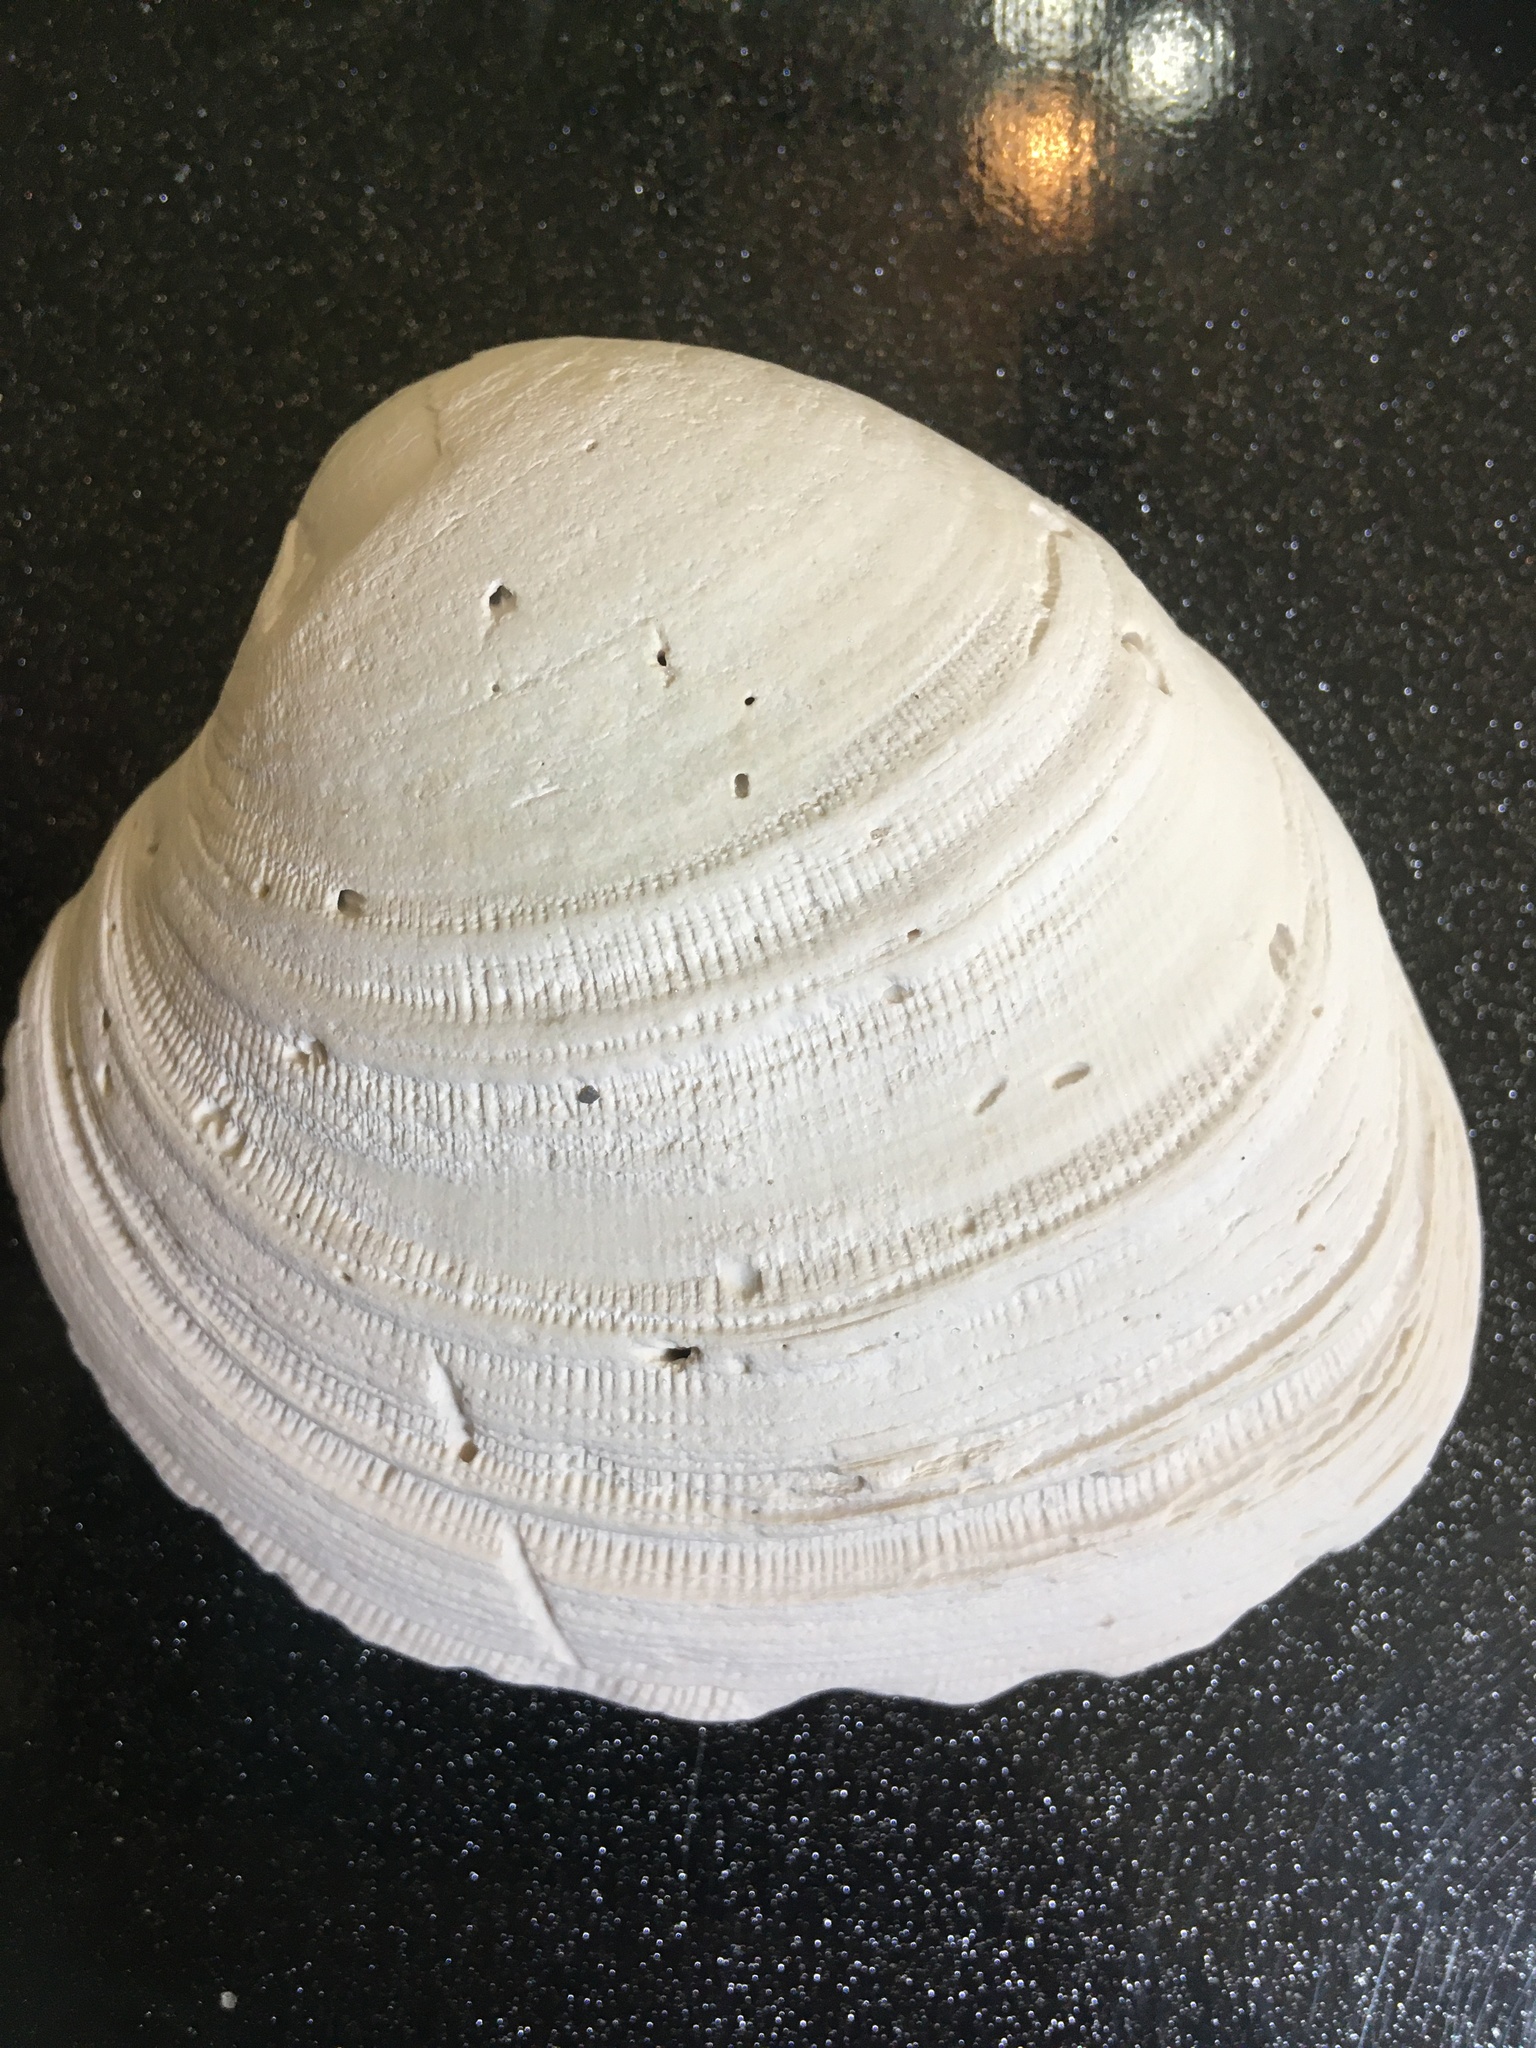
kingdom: Animalia
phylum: Mollusca
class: Bivalvia
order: Venerida
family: Veneridae
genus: Mercenaria
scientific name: Mercenaria campechiensis
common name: Südliche quahog-muschel
